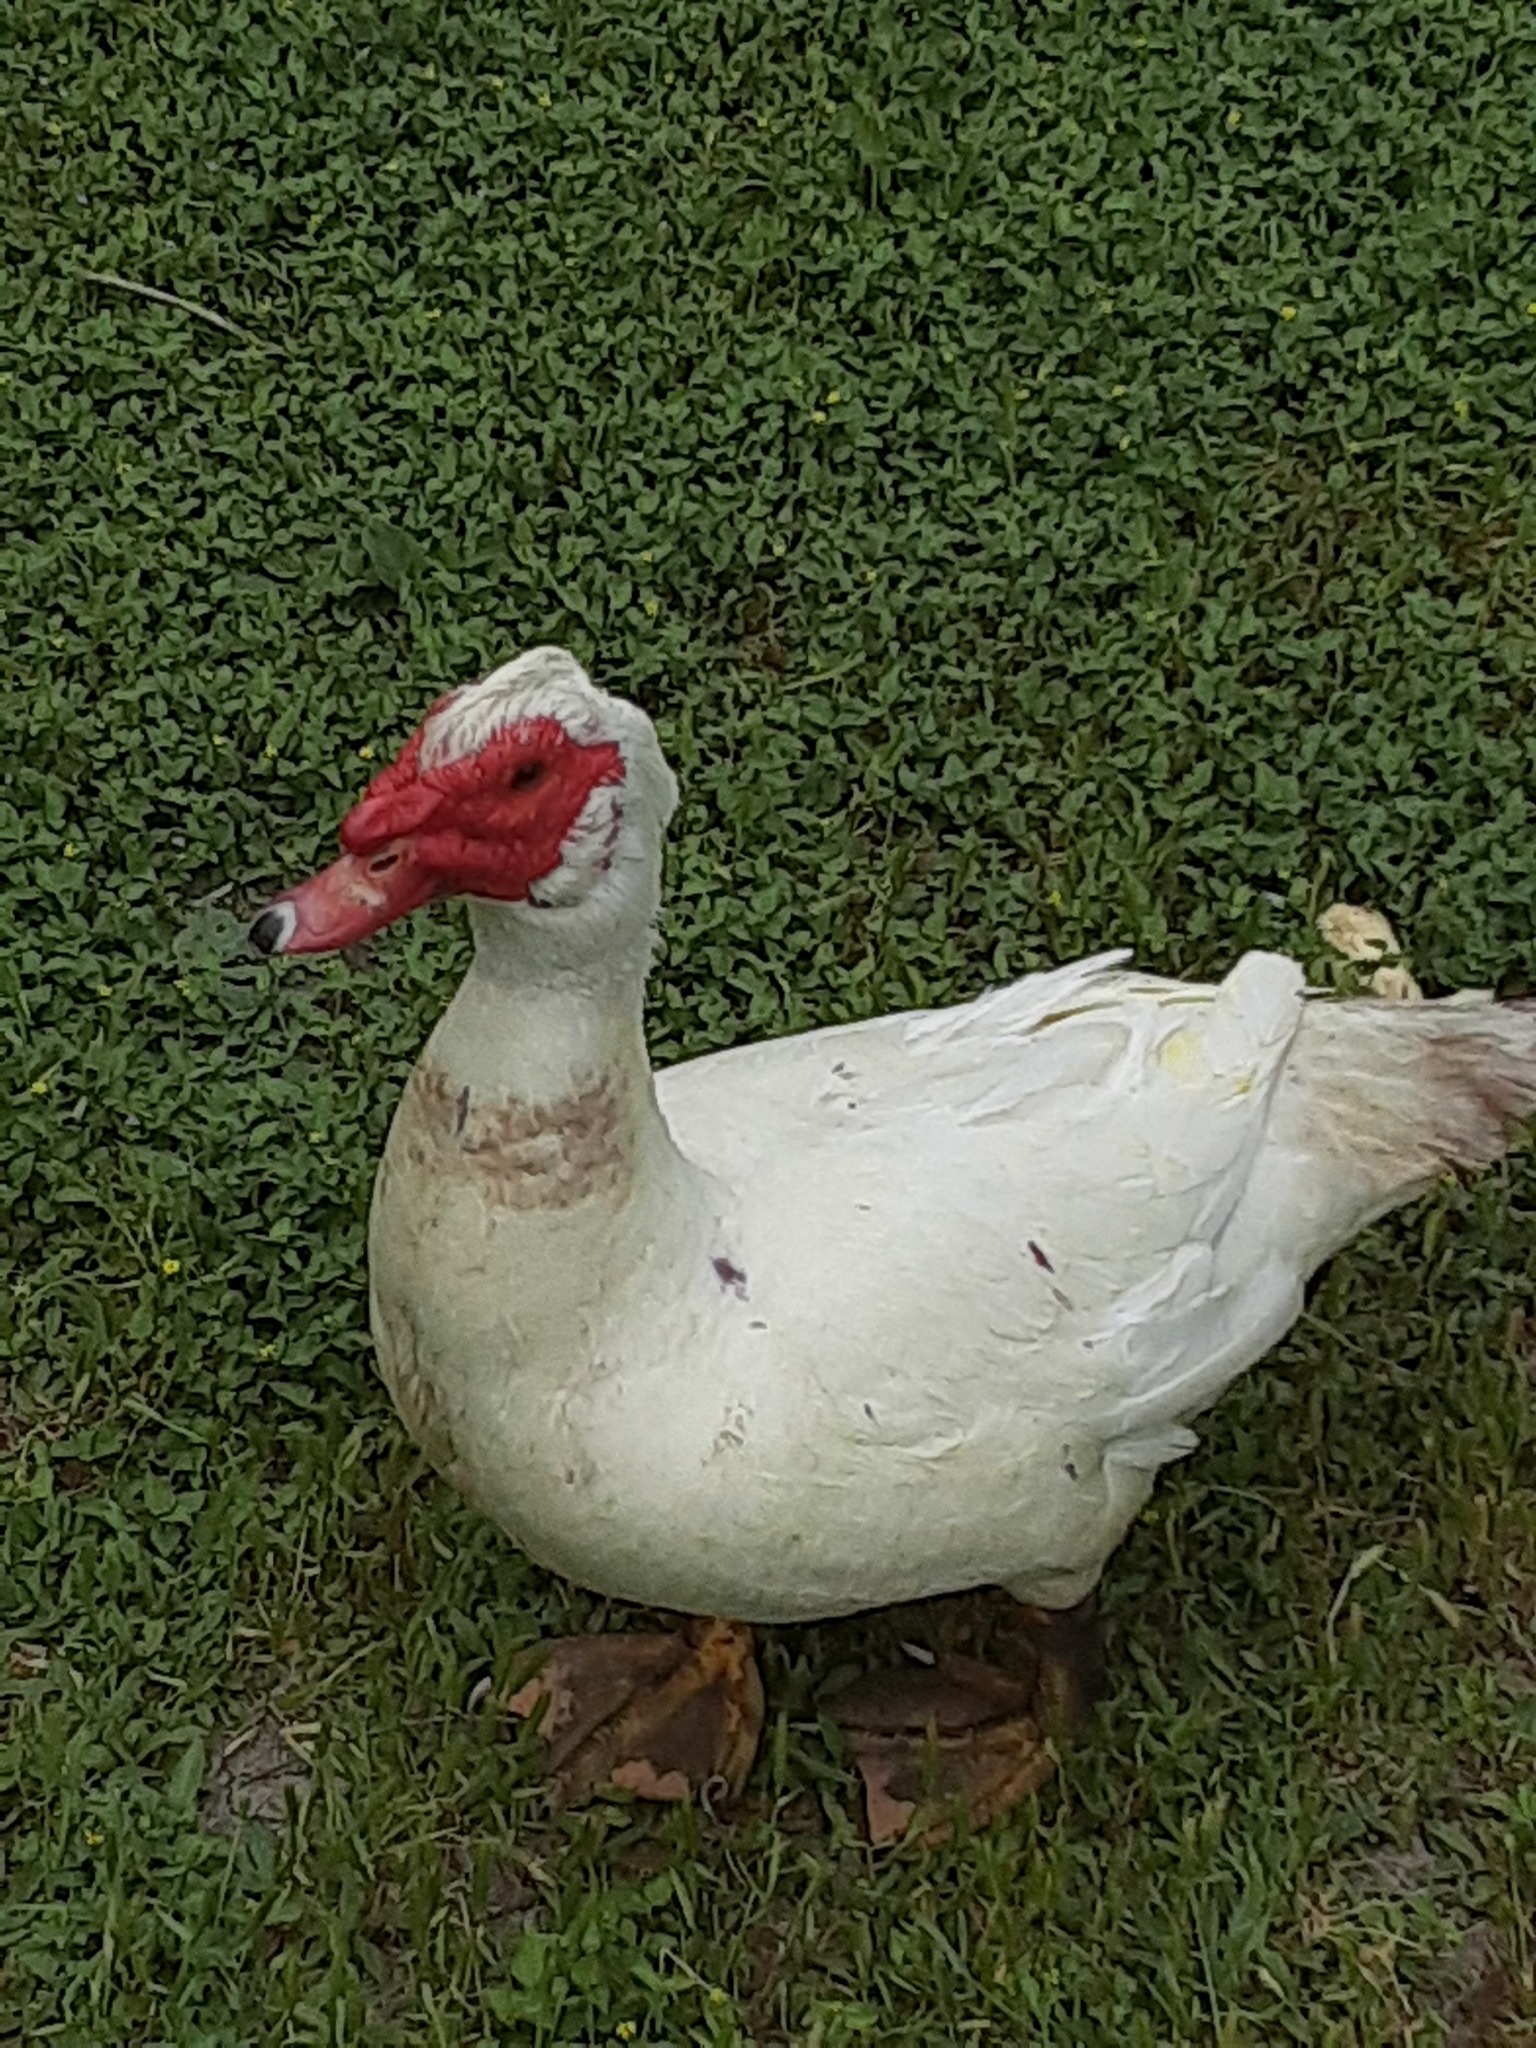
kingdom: Animalia
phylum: Chordata
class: Aves
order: Anseriformes
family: Anatidae
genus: Cairina
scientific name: Cairina moschata
